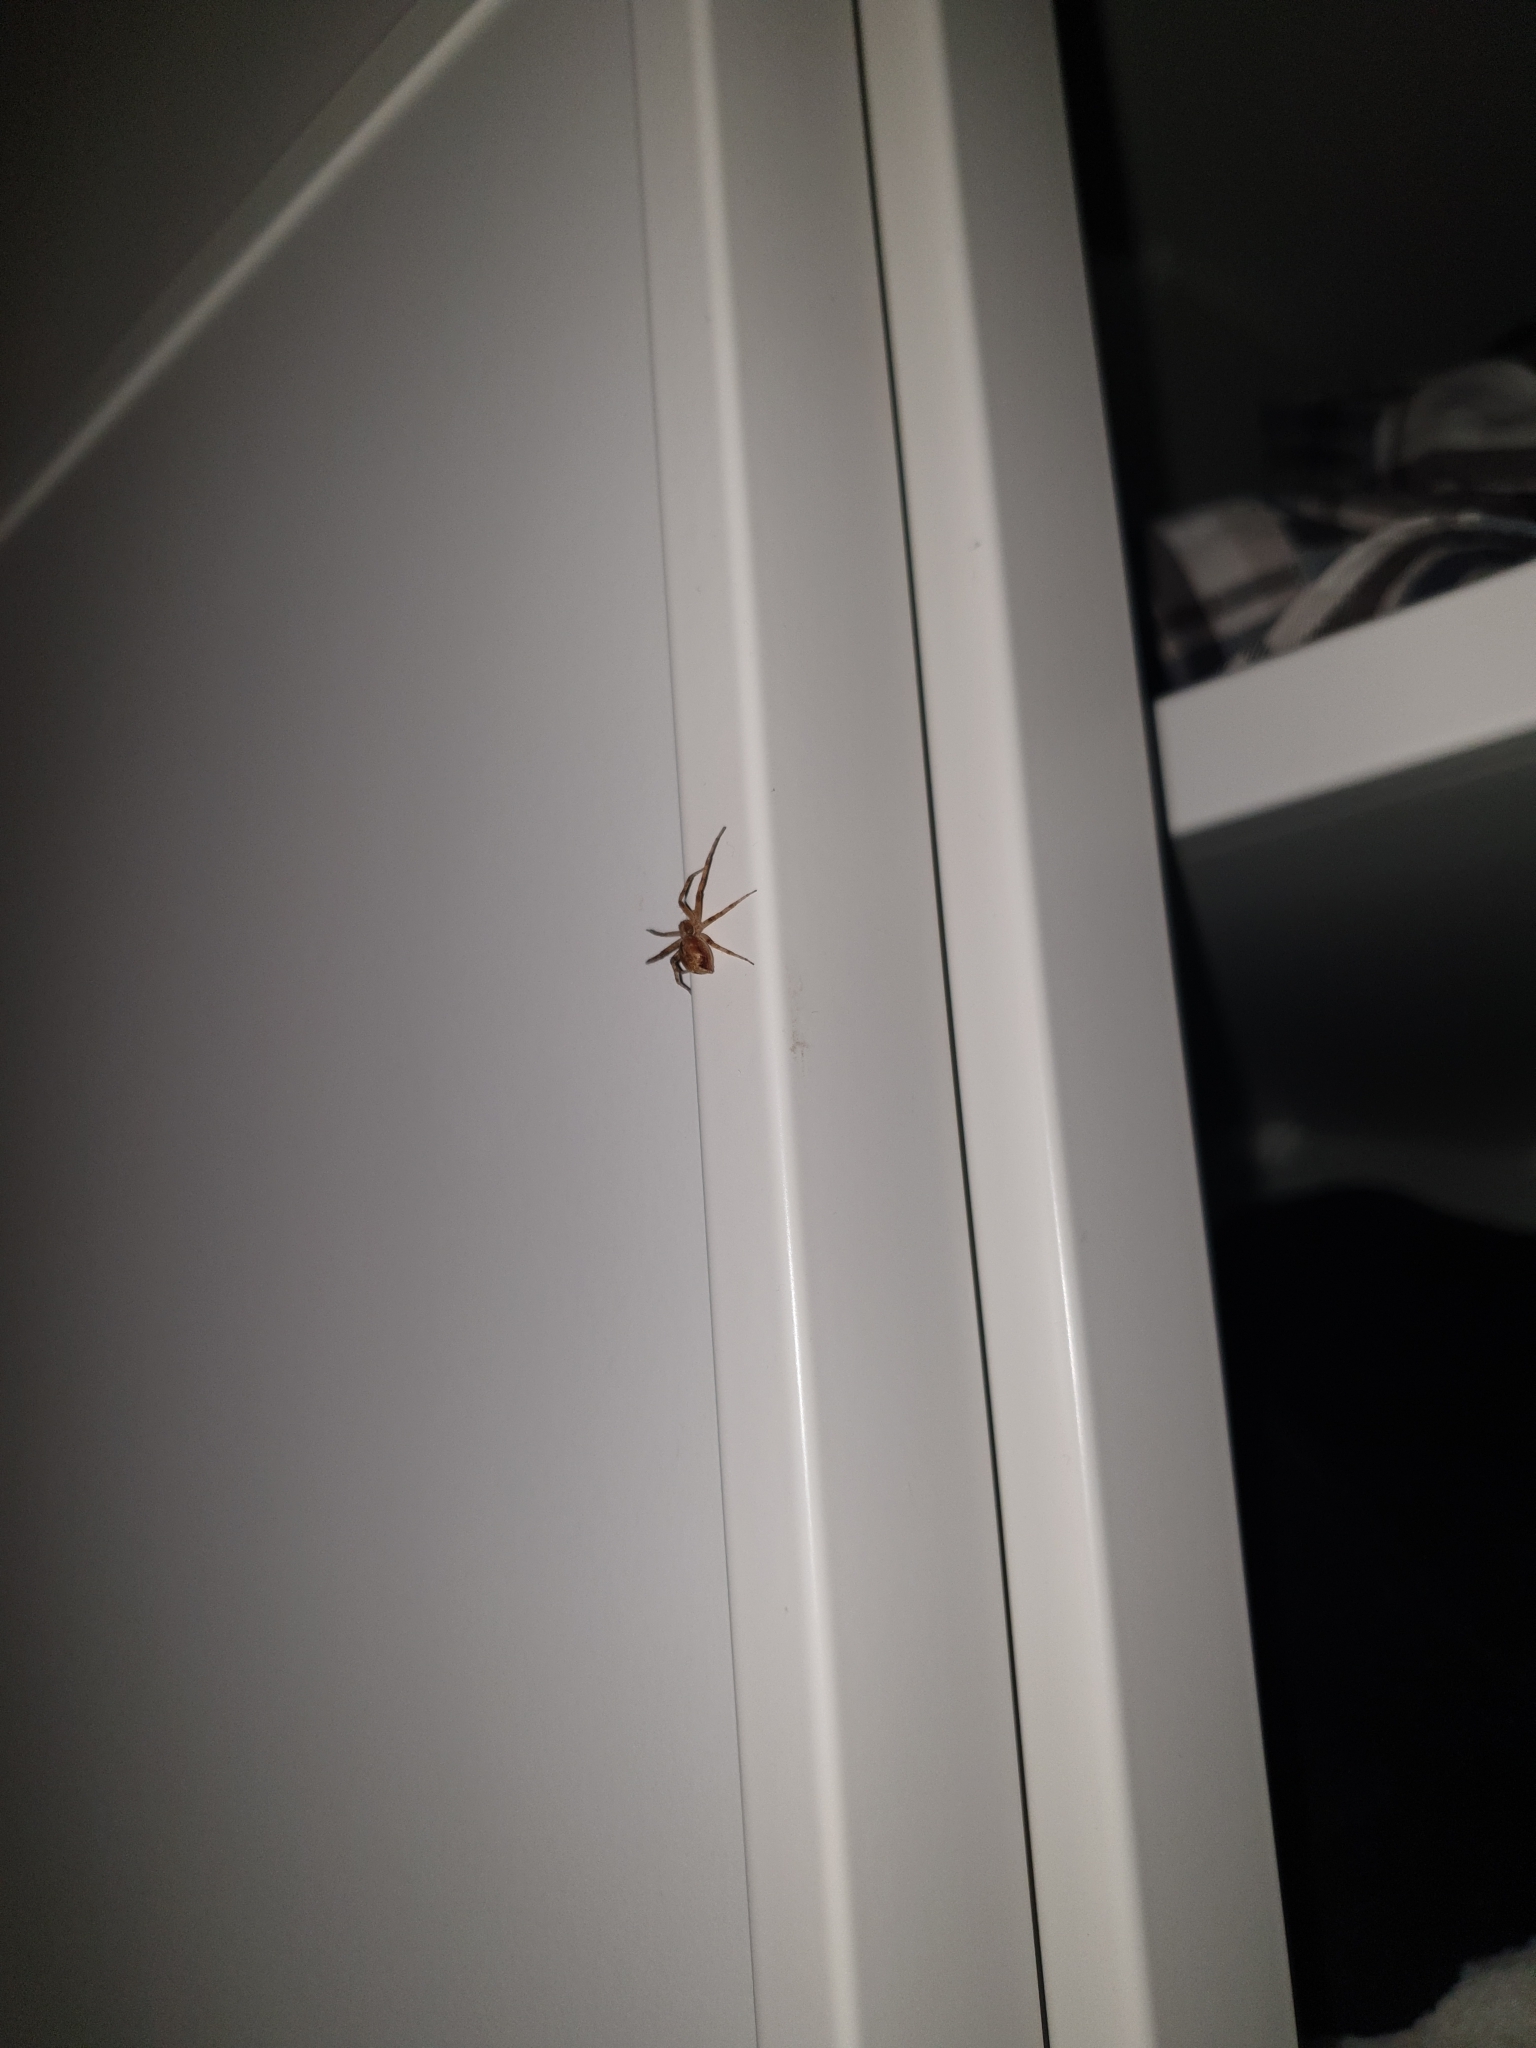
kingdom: Animalia
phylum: Arthropoda
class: Arachnida
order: Araneae
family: Philodromidae
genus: Philodromus
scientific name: Philodromus
